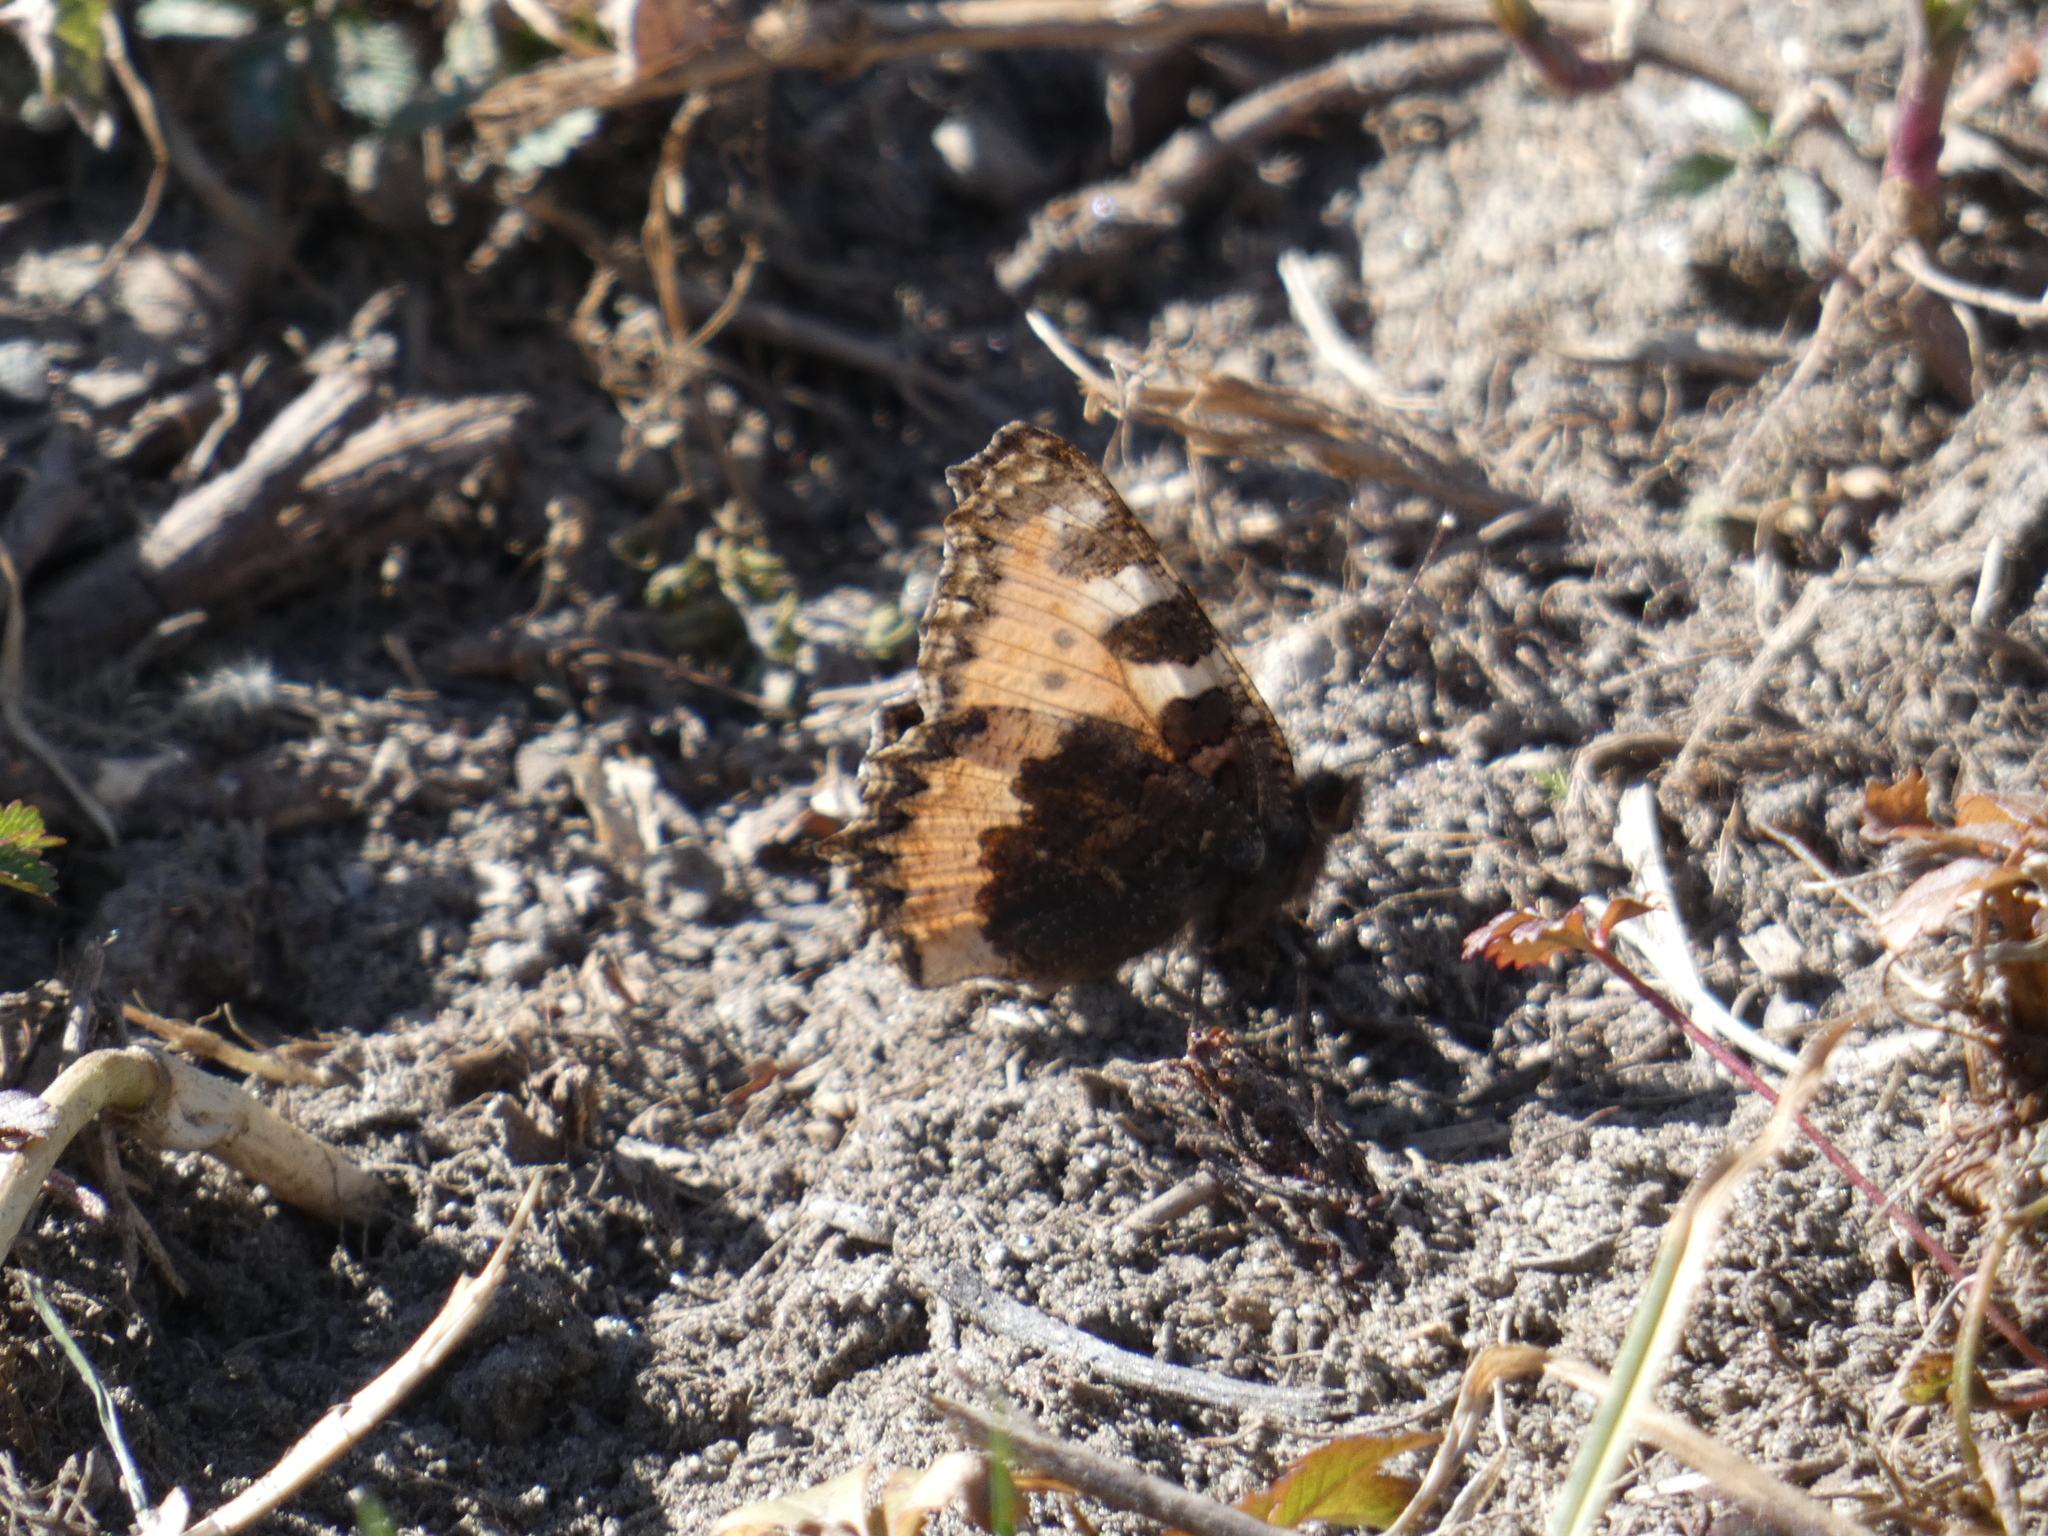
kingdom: Animalia
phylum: Arthropoda
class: Insecta
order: Lepidoptera
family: Nymphalidae
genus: Aglais
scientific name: Aglais urticae
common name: Small tortoiseshell
